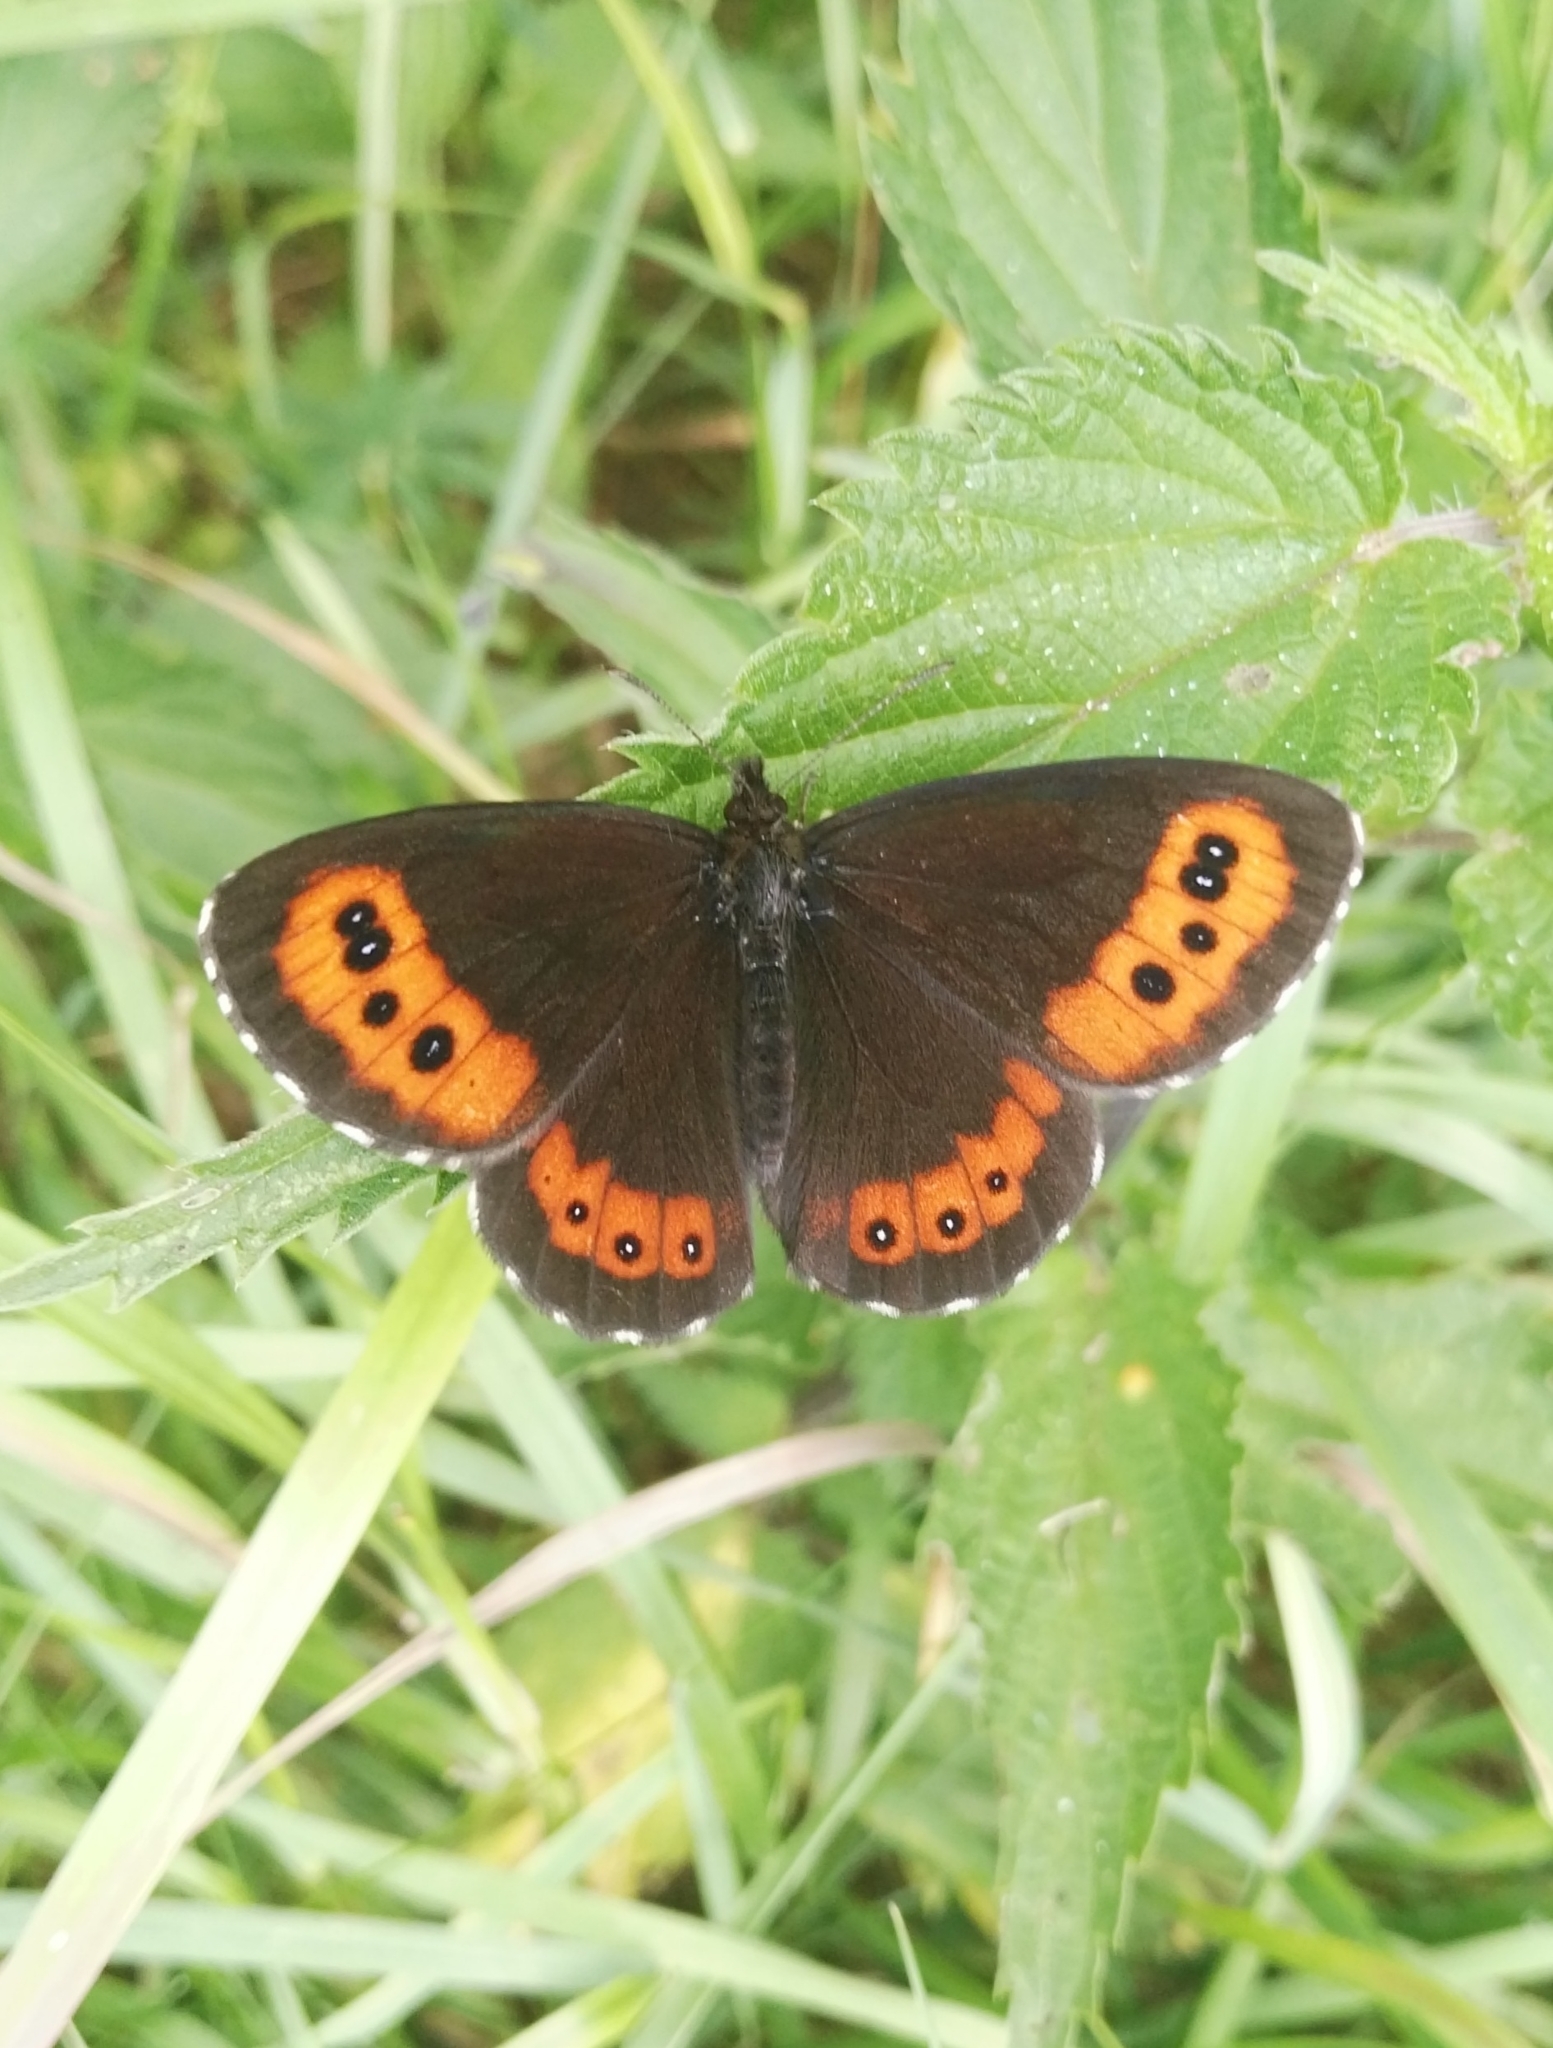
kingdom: Animalia
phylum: Arthropoda
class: Insecta
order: Lepidoptera
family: Nymphalidae
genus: Erebia
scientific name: Erebia ligea
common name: Arran brown
